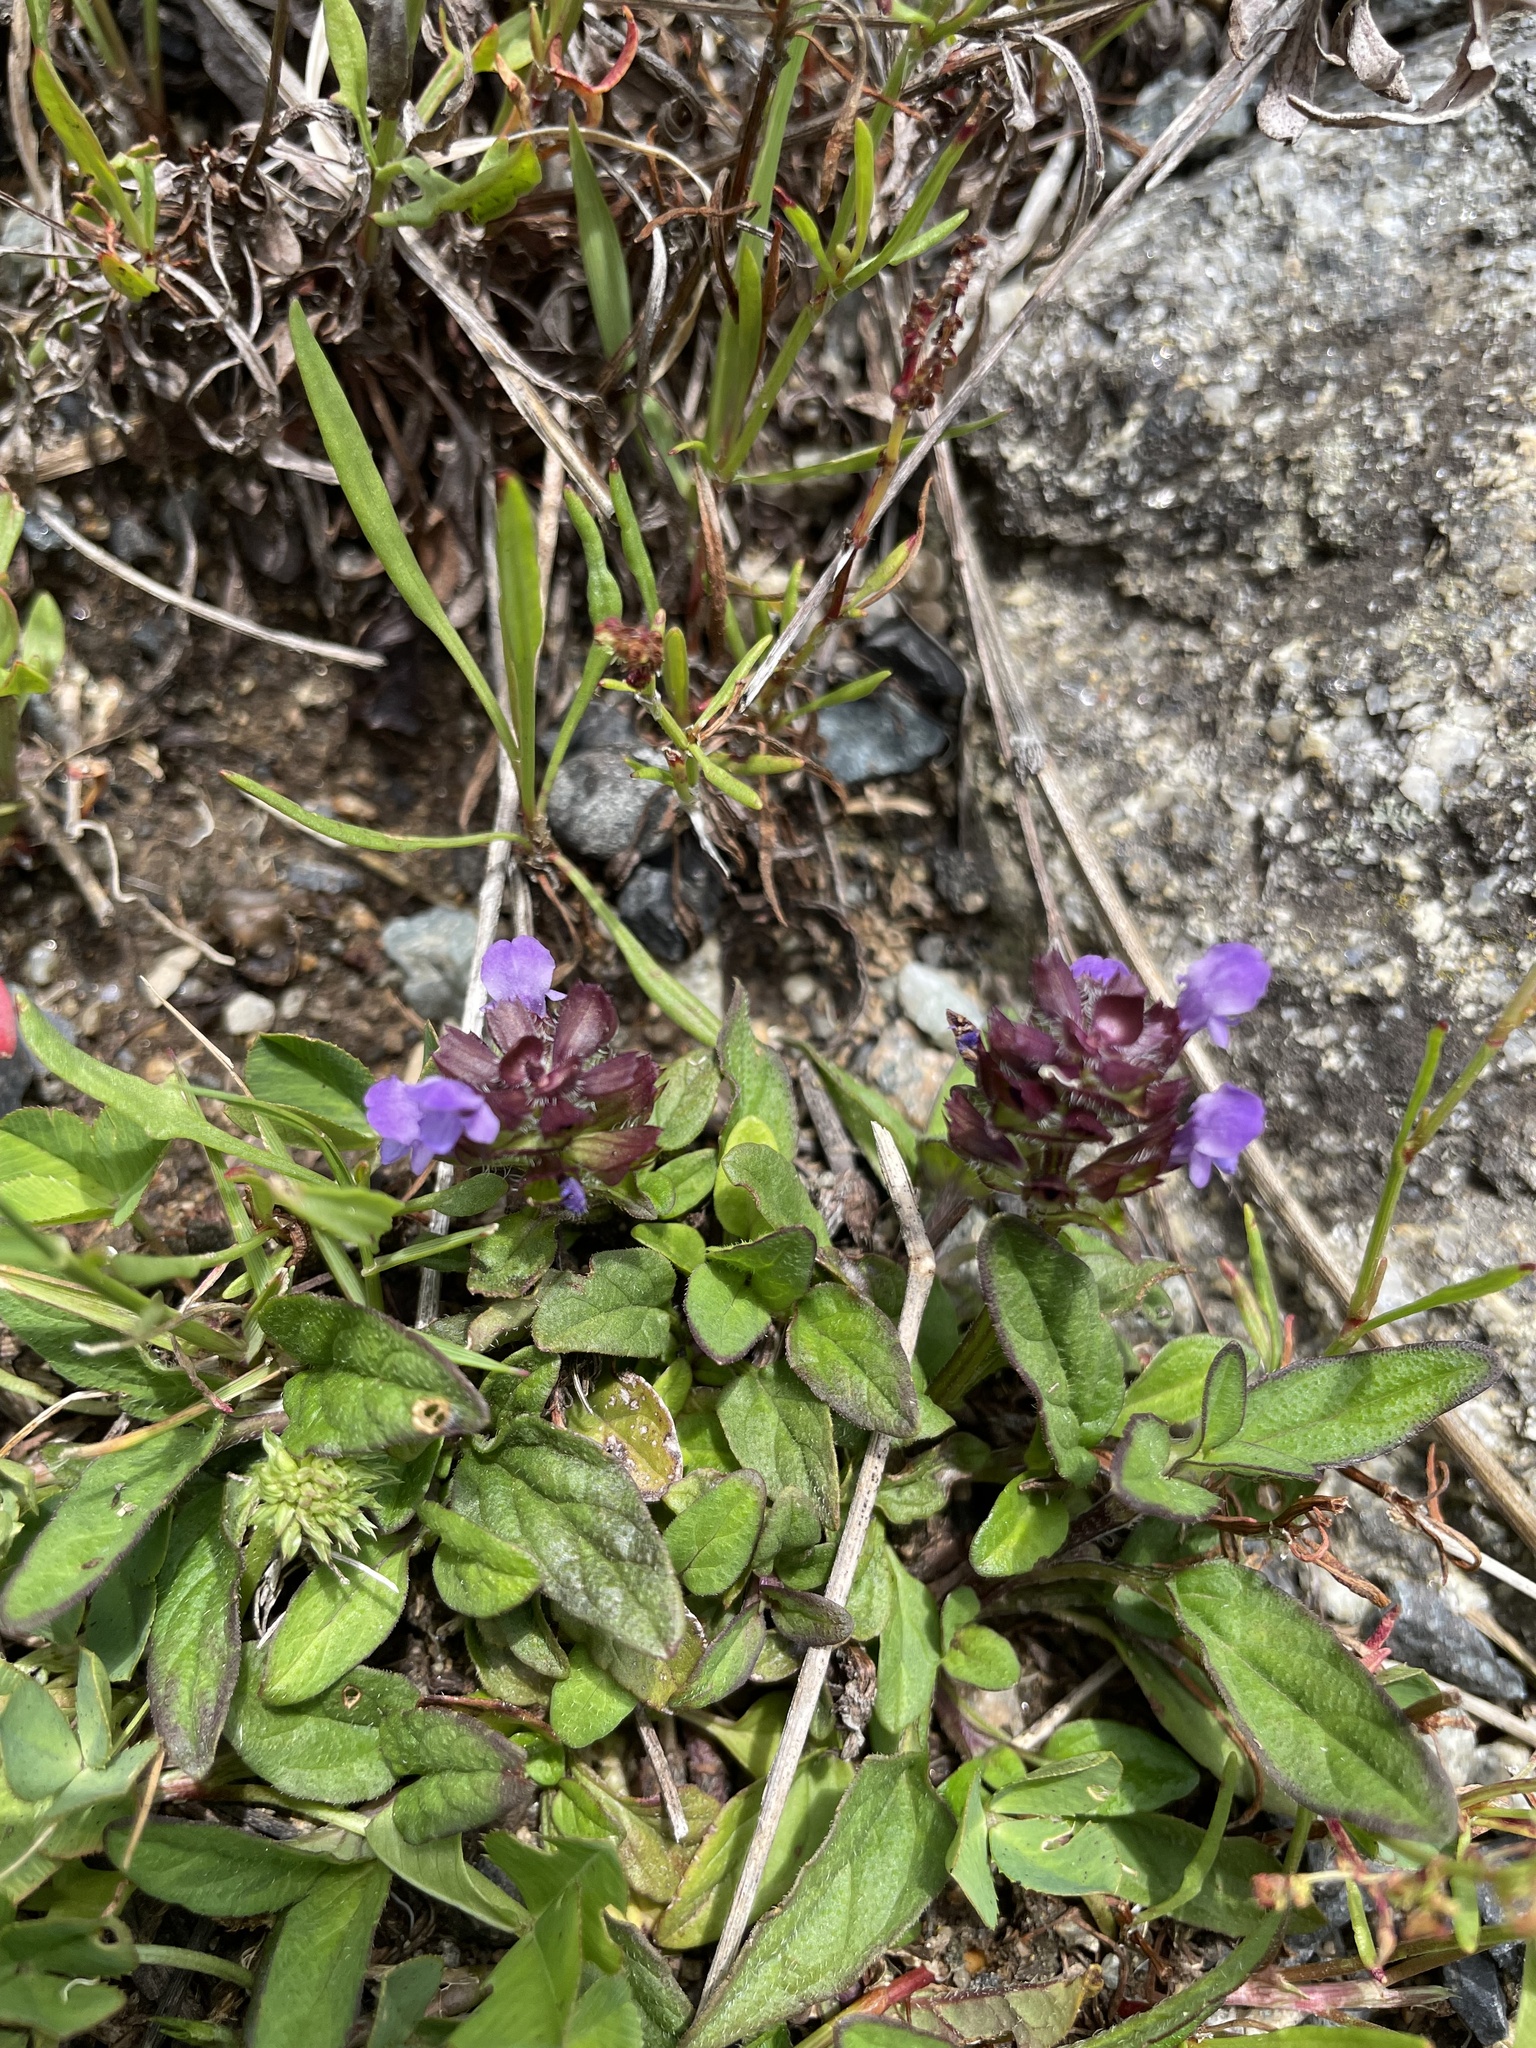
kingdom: Plantae
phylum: Tracheophyta
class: Magnoliopsida
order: Lamiales
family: Lamiaceae
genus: Prunella
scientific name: Prunella vulgaris
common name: Heal-all
